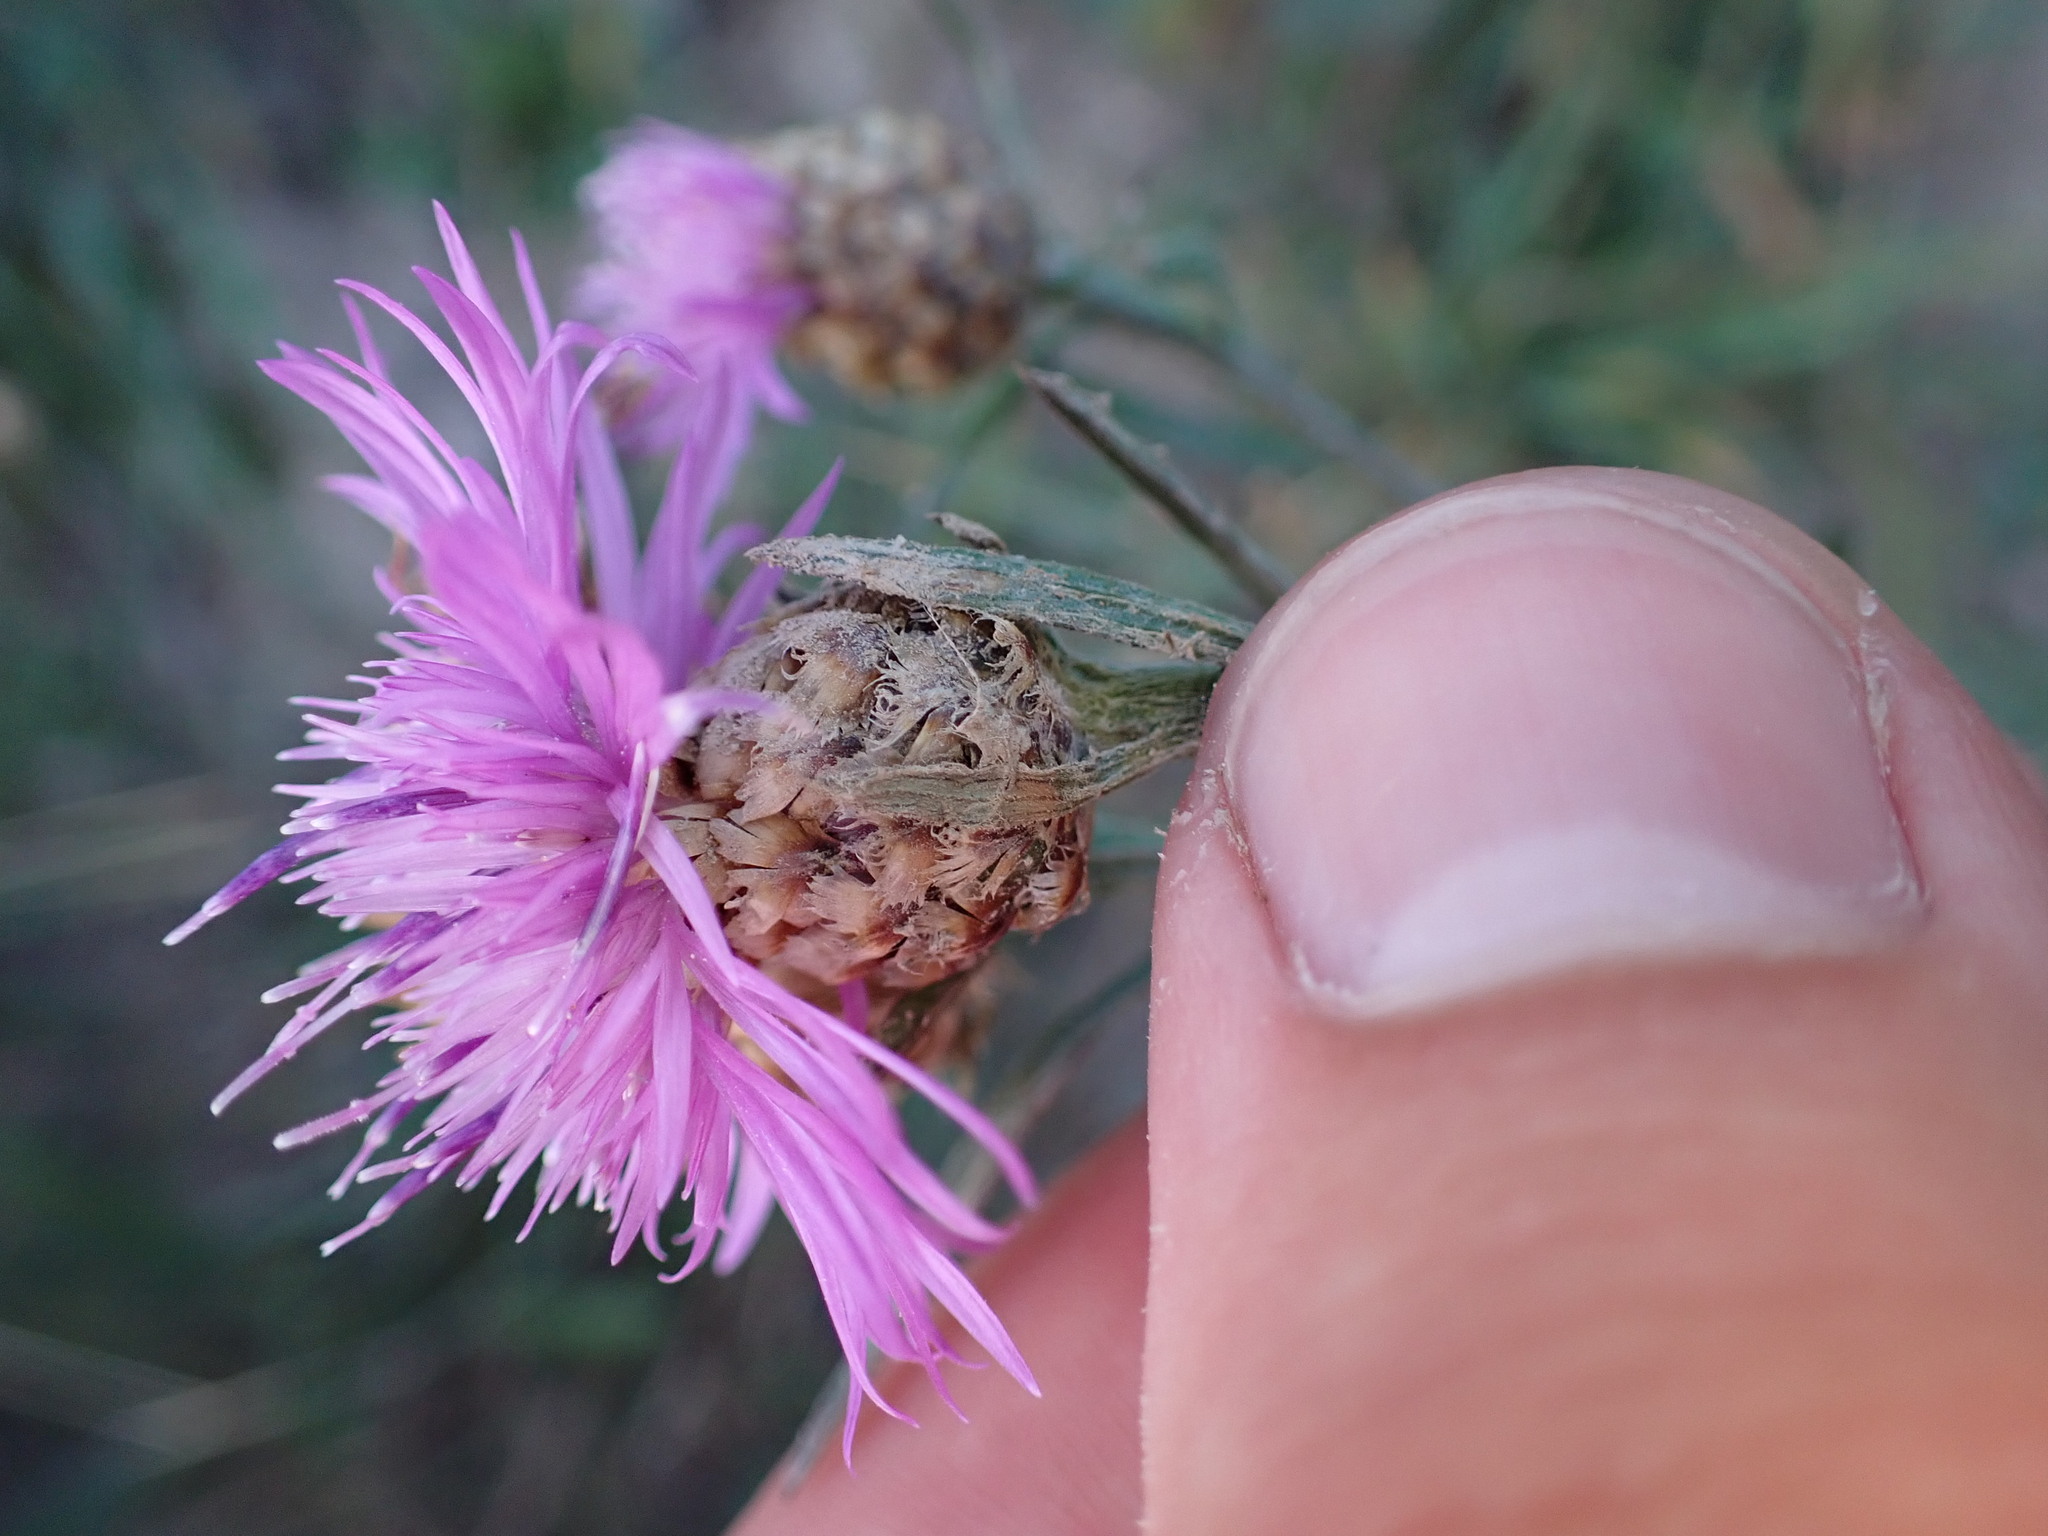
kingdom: Plantae
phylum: Tracheophyta
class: Magnoliopsida
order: Asterales
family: Asteraceae
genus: Centaurea
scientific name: Centaurea jacea
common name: Brown knapweed
